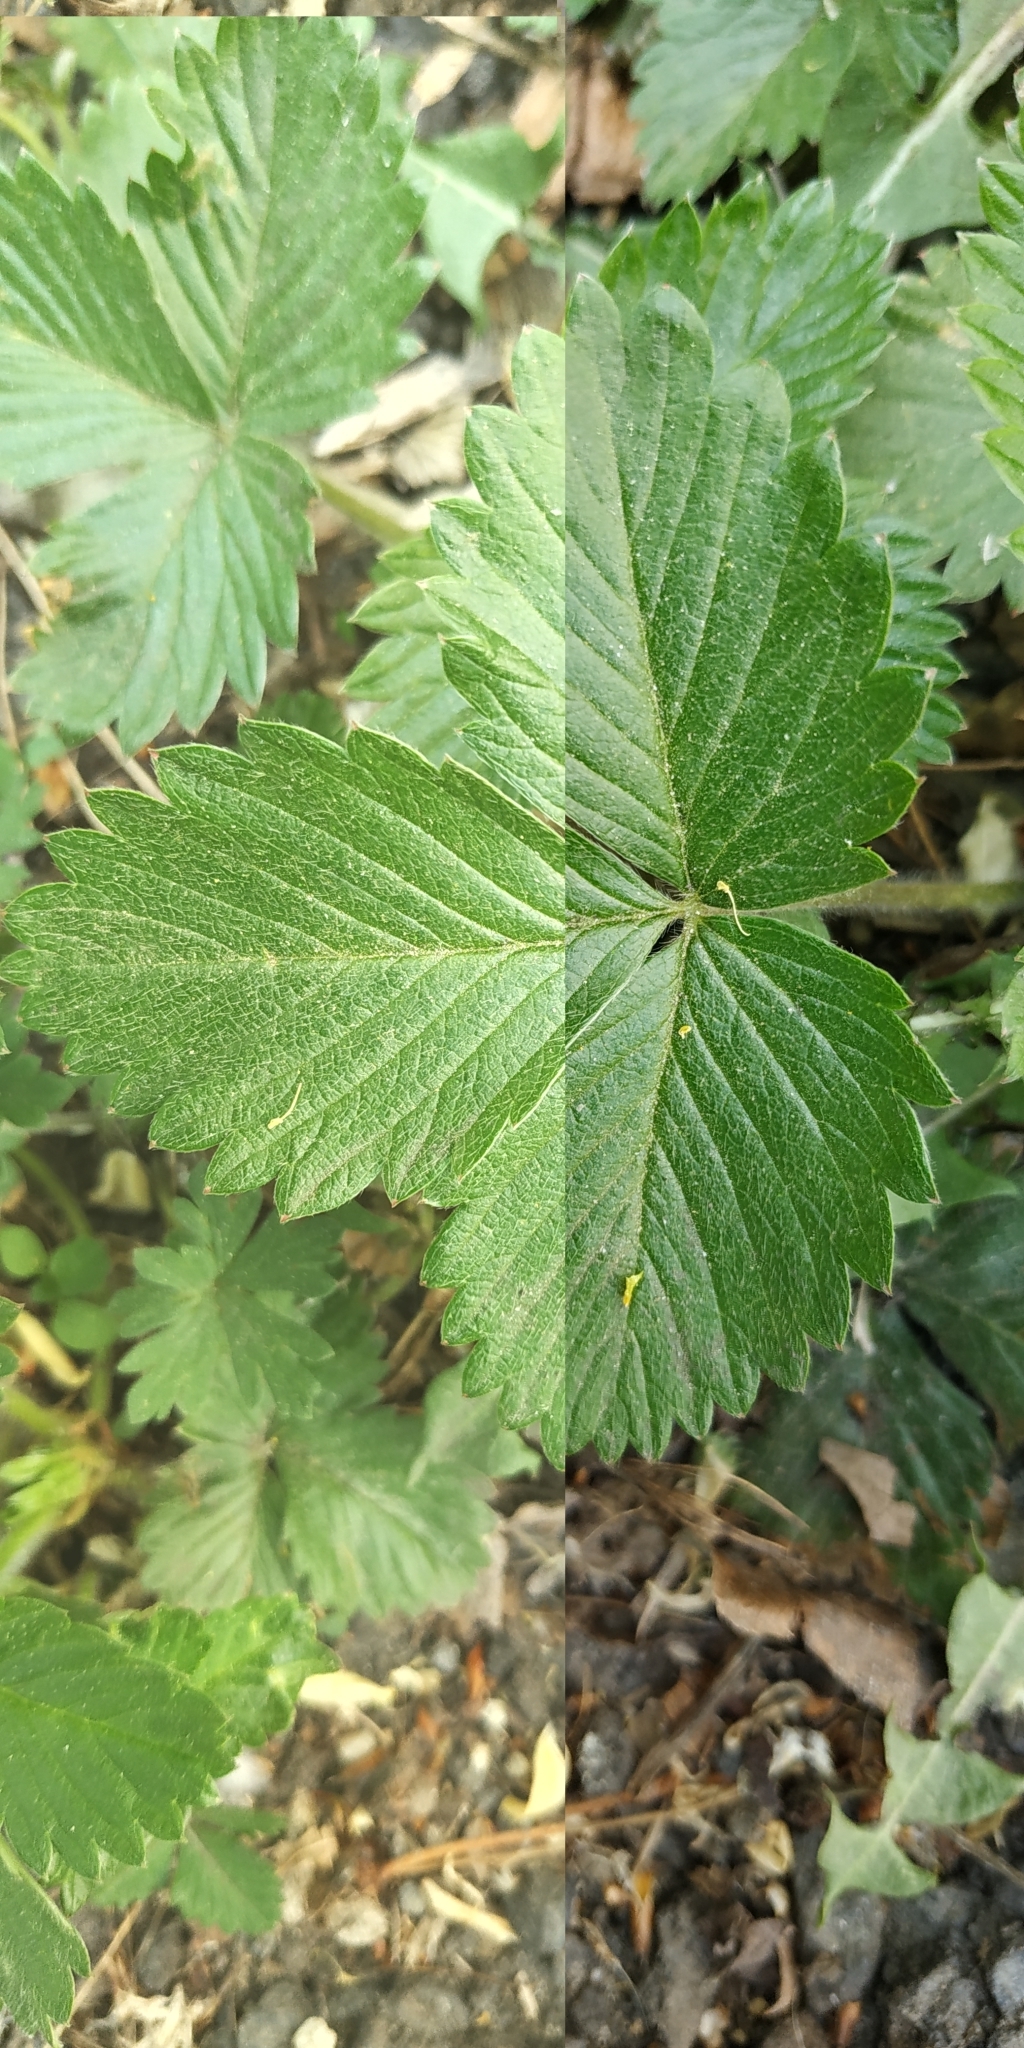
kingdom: Plantae
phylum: Tracheophyta
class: Magnoliopsida
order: Rosales
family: Rosaceae
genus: Fragaria
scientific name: Fragaria vesca
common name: Wild strawberry
